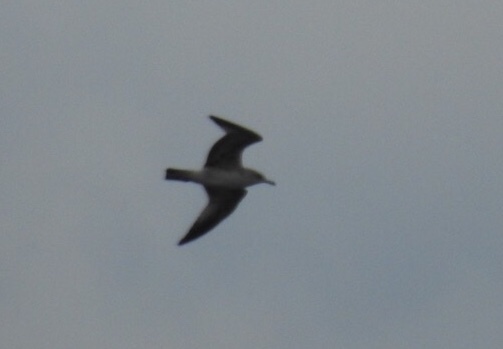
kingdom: Animalia
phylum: Chordata
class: Aves
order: Charadriiformes
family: Laridae
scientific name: Laridae
